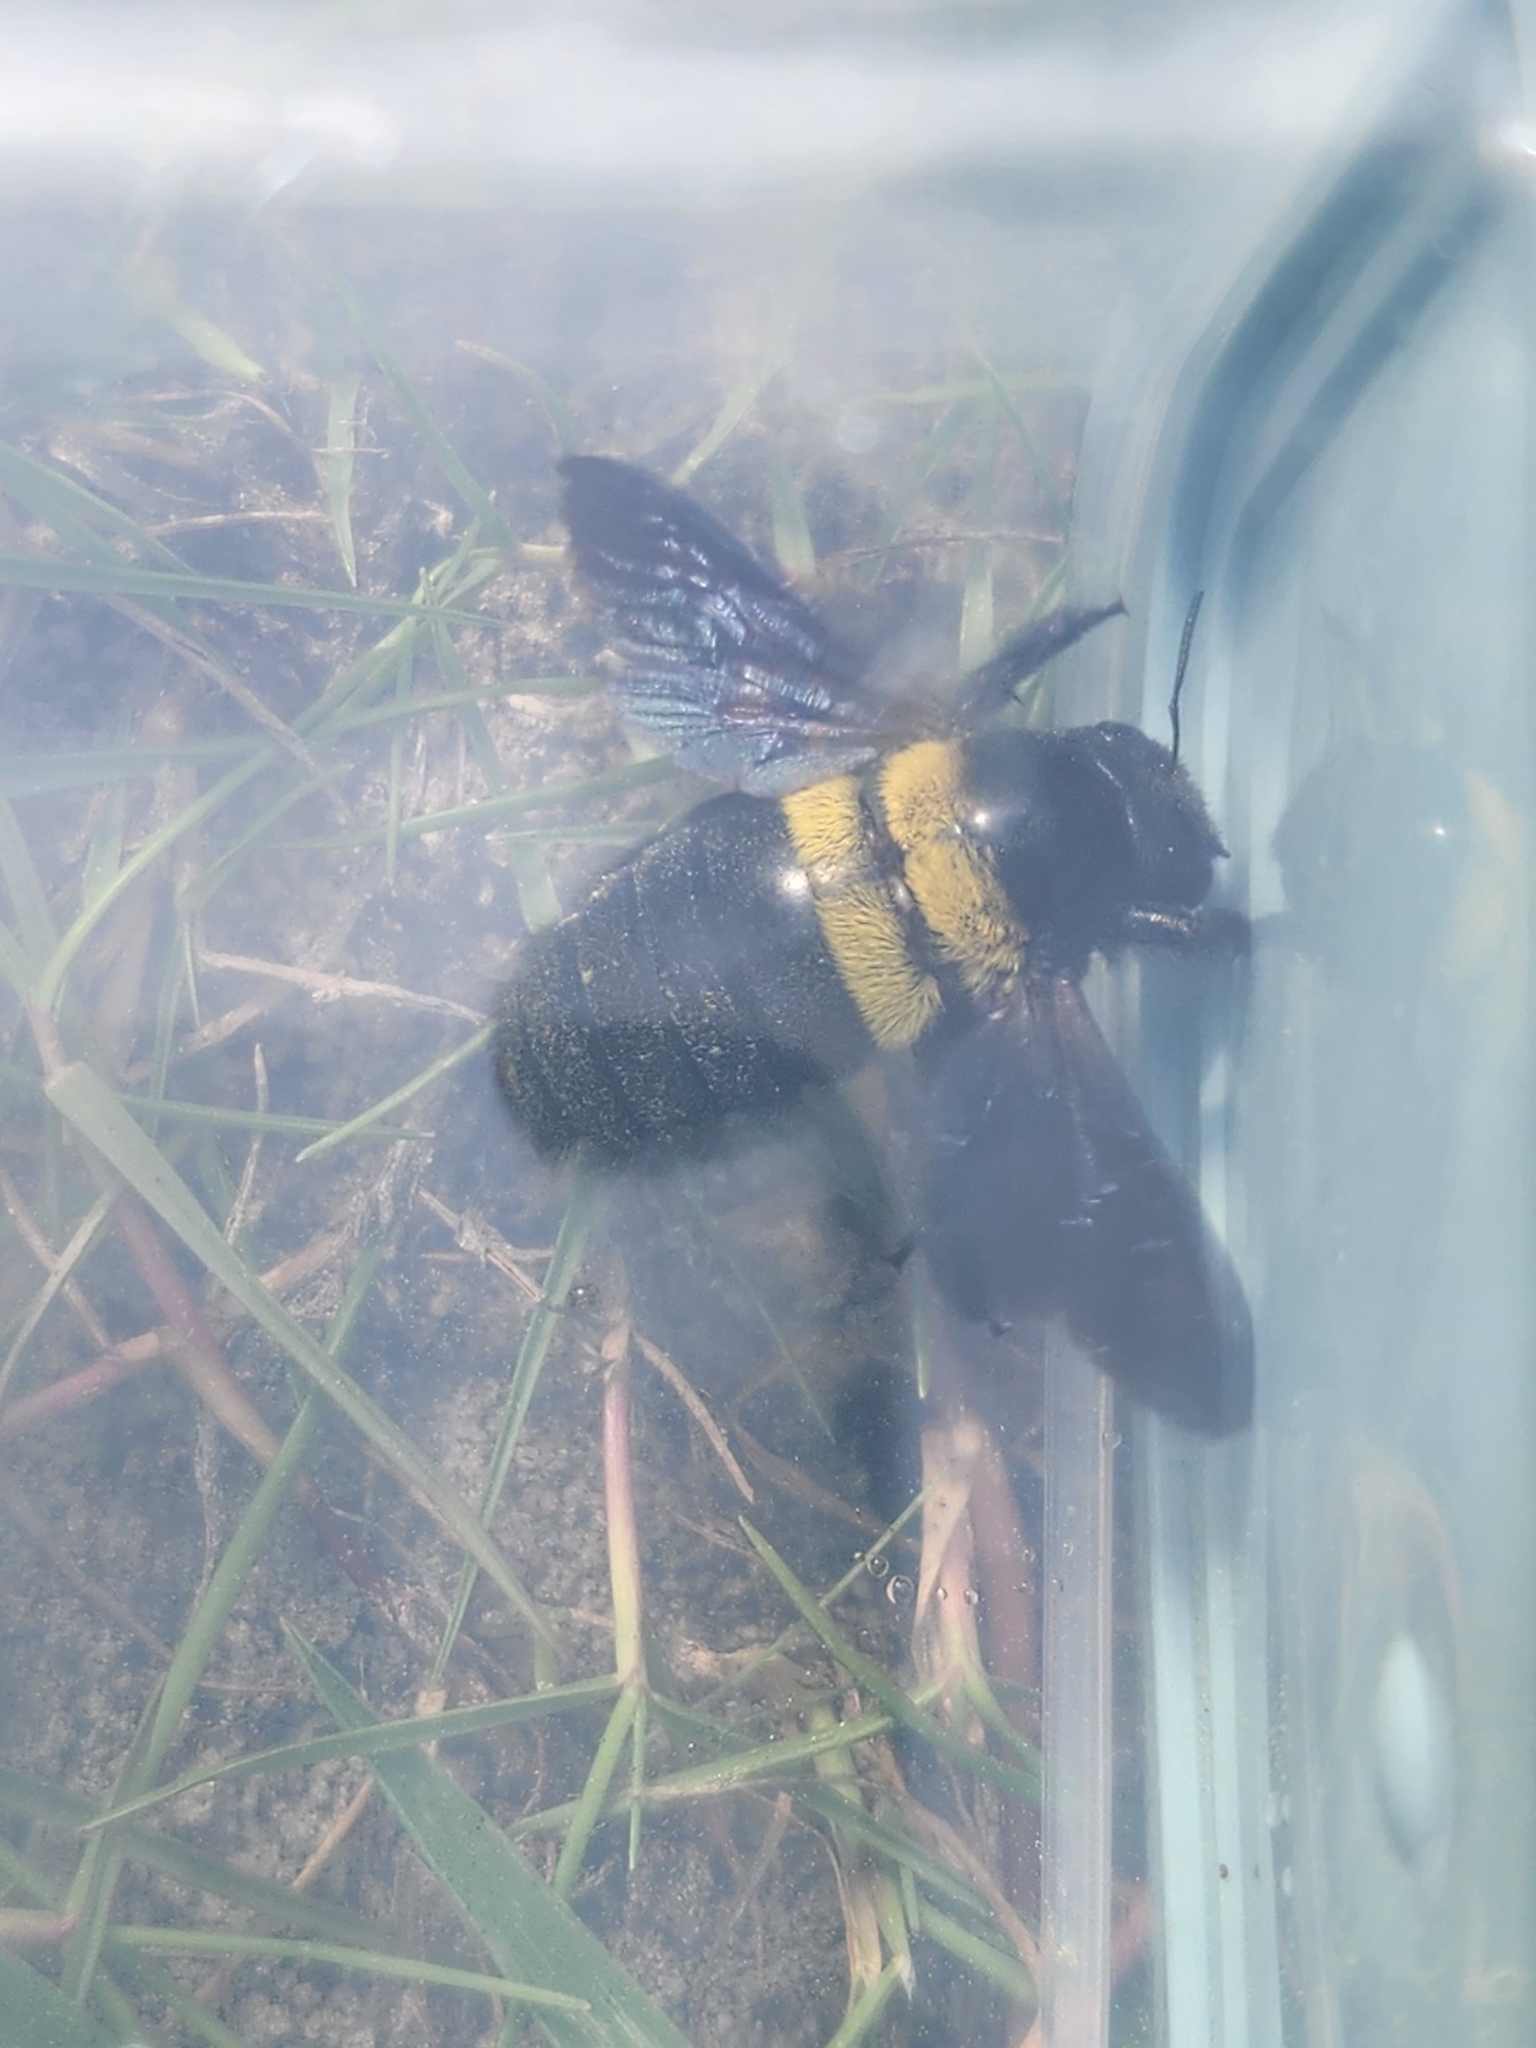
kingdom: Animalia
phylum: Arthropoda
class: Insecta
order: Hymenoptera
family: Apidae
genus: Xylocopa
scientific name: Xylocopa caffra
